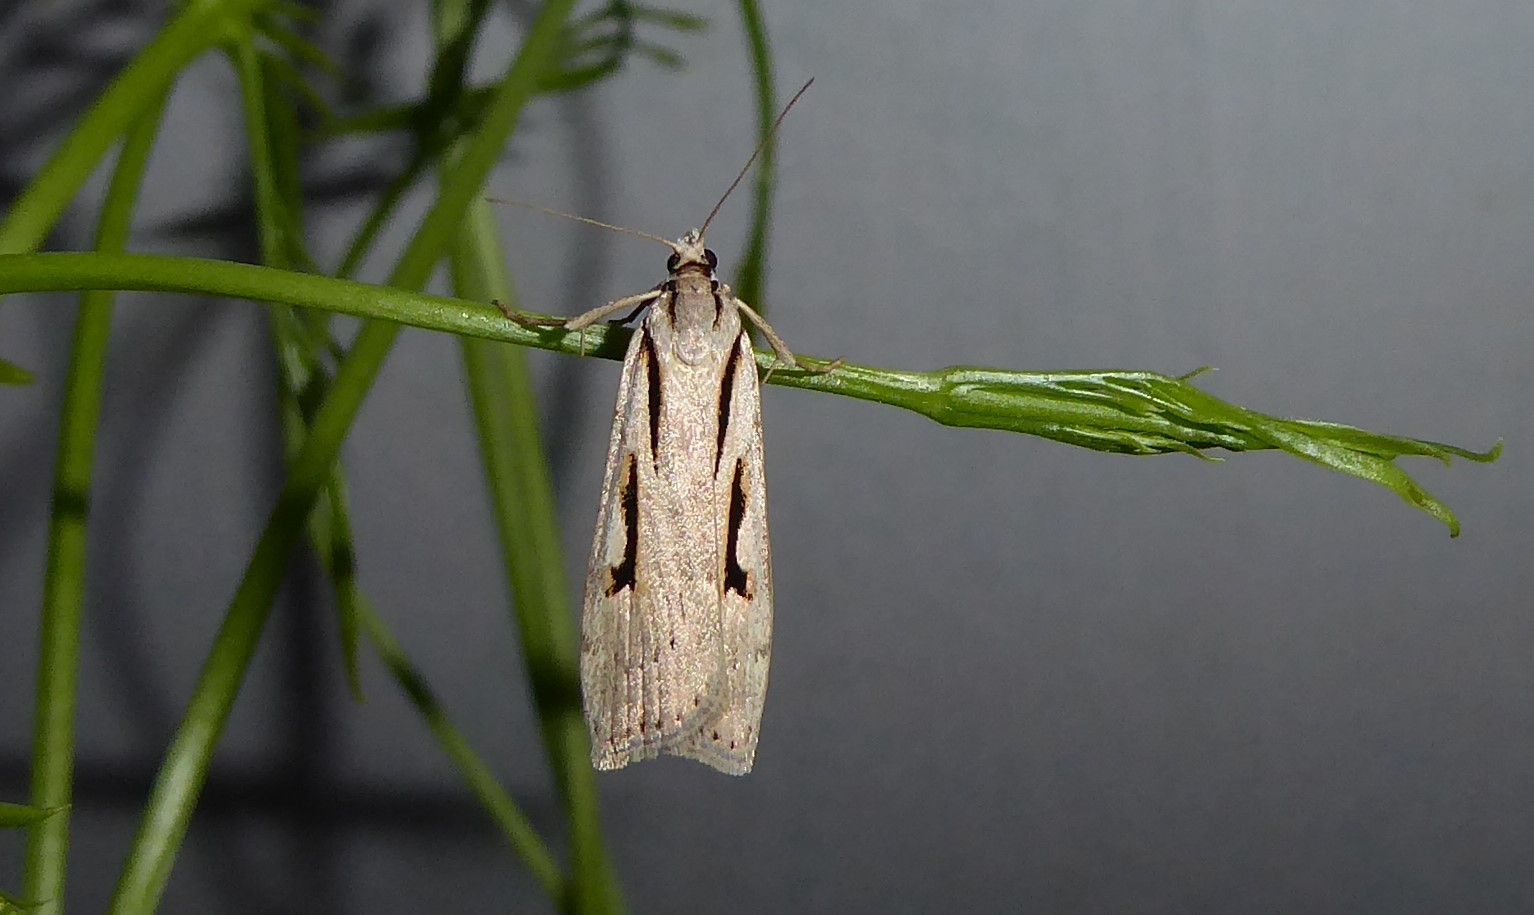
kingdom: Animalia
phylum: Arthropoda
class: Insecta
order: Lepidoptera
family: Crambidae
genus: Scoparia
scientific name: Scoparia rotuellus
